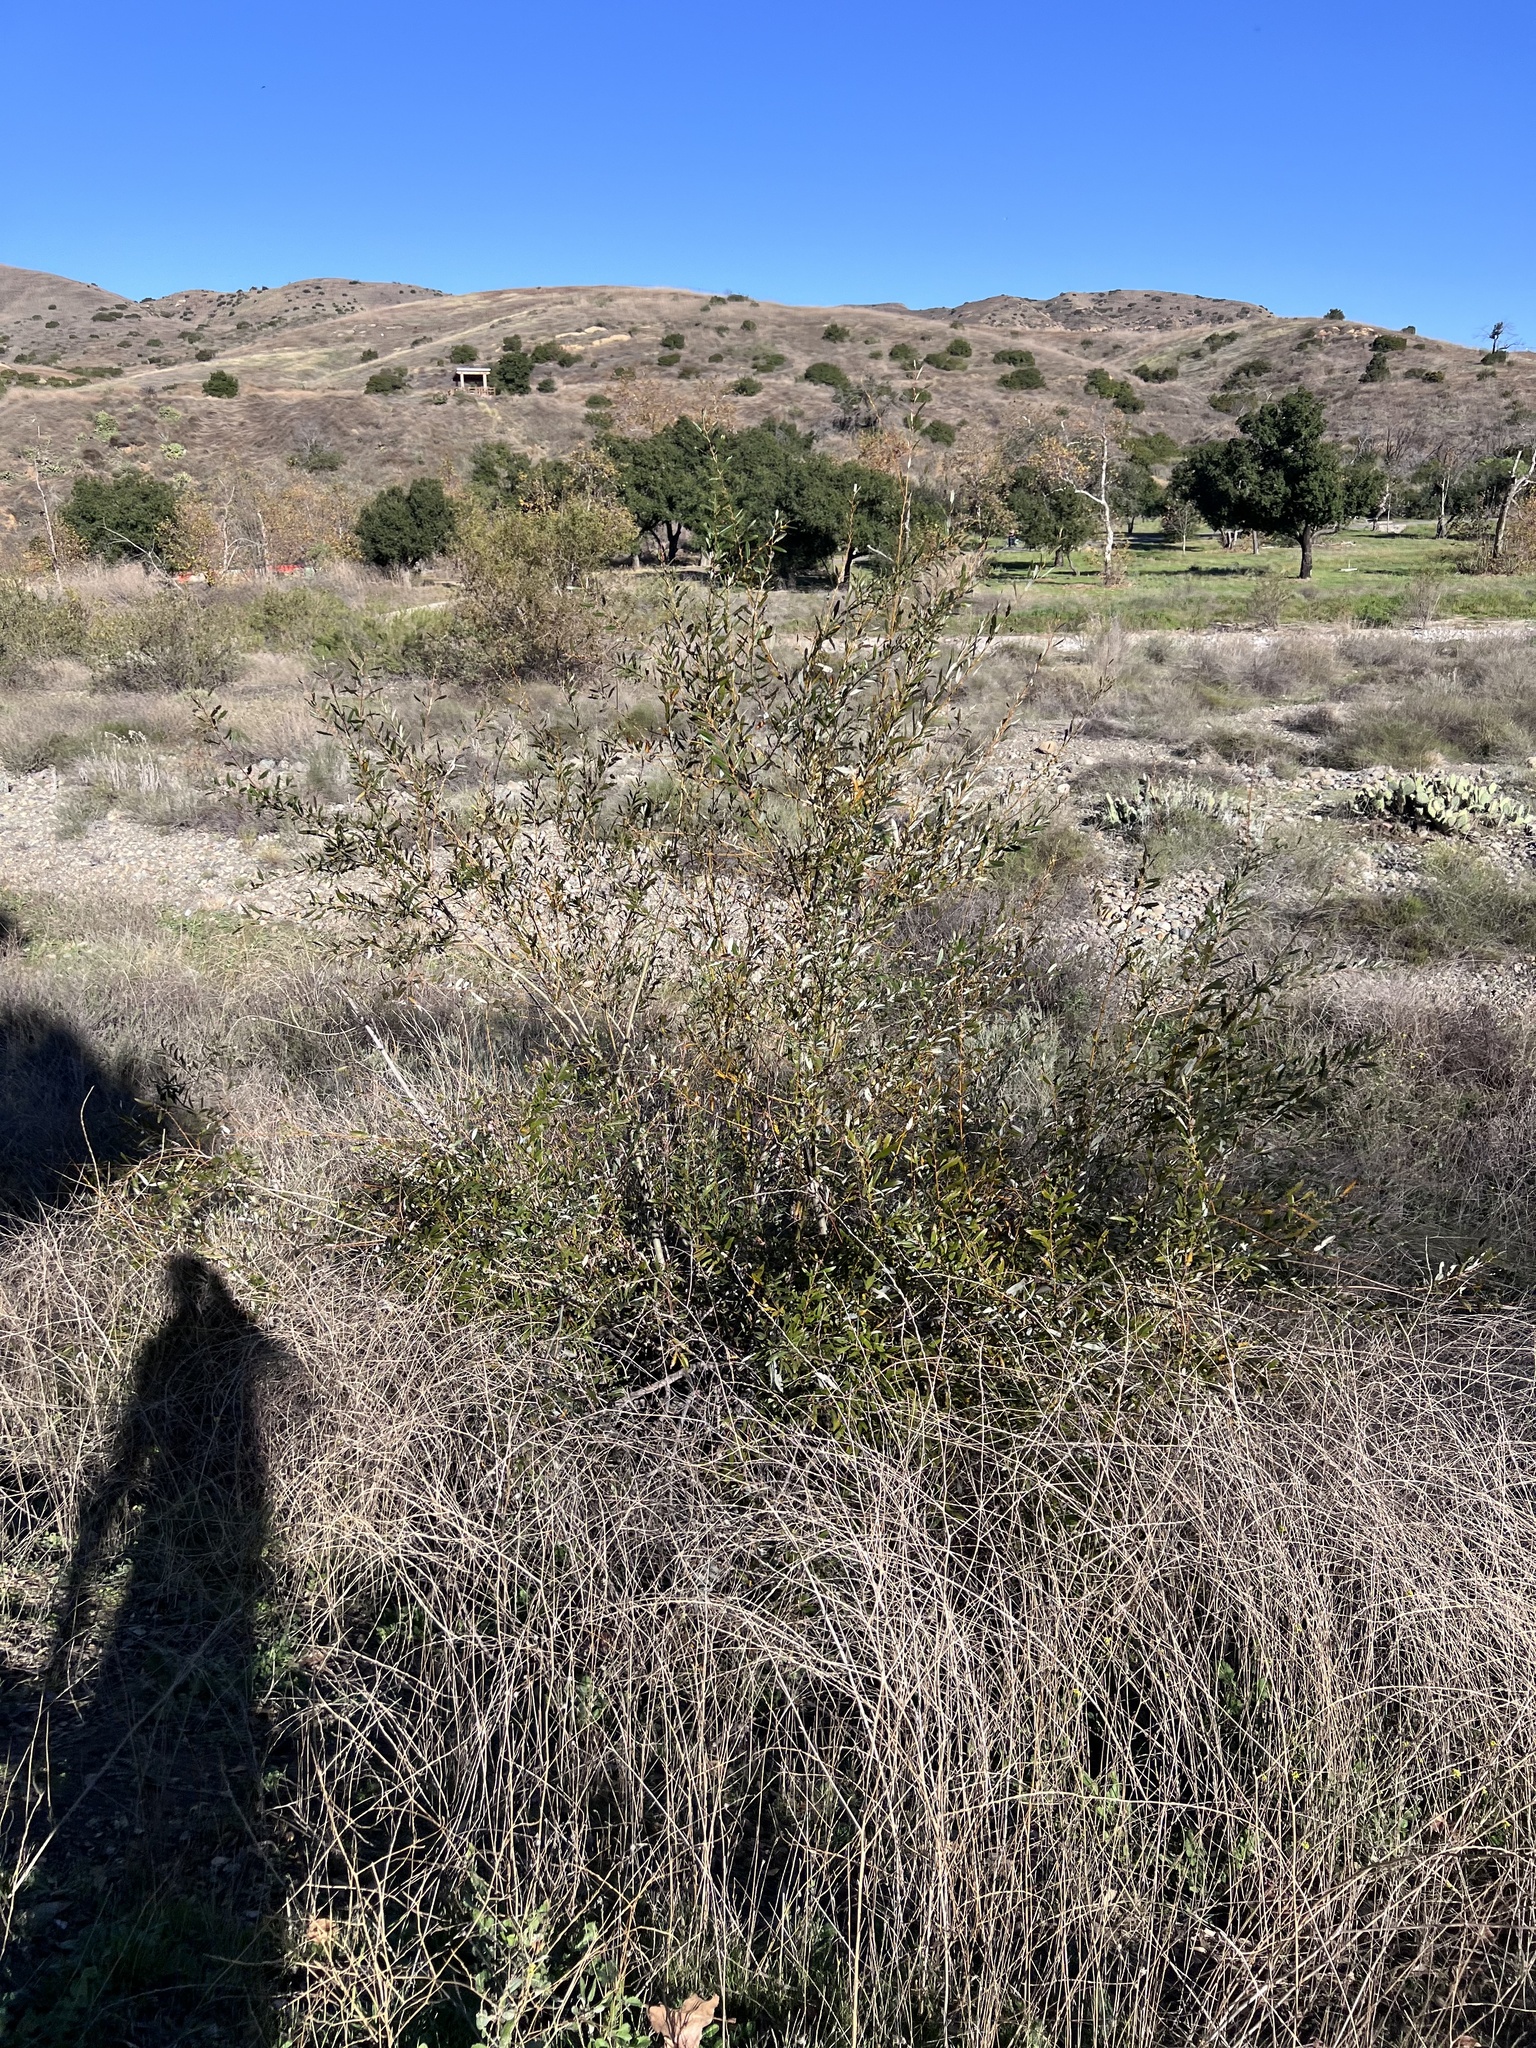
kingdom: Plantae
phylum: Tracheophyta
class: Magnoliopsida
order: Fabales
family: Fabaceae
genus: Acacia
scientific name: Acacia redolens
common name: Bank catclaw
